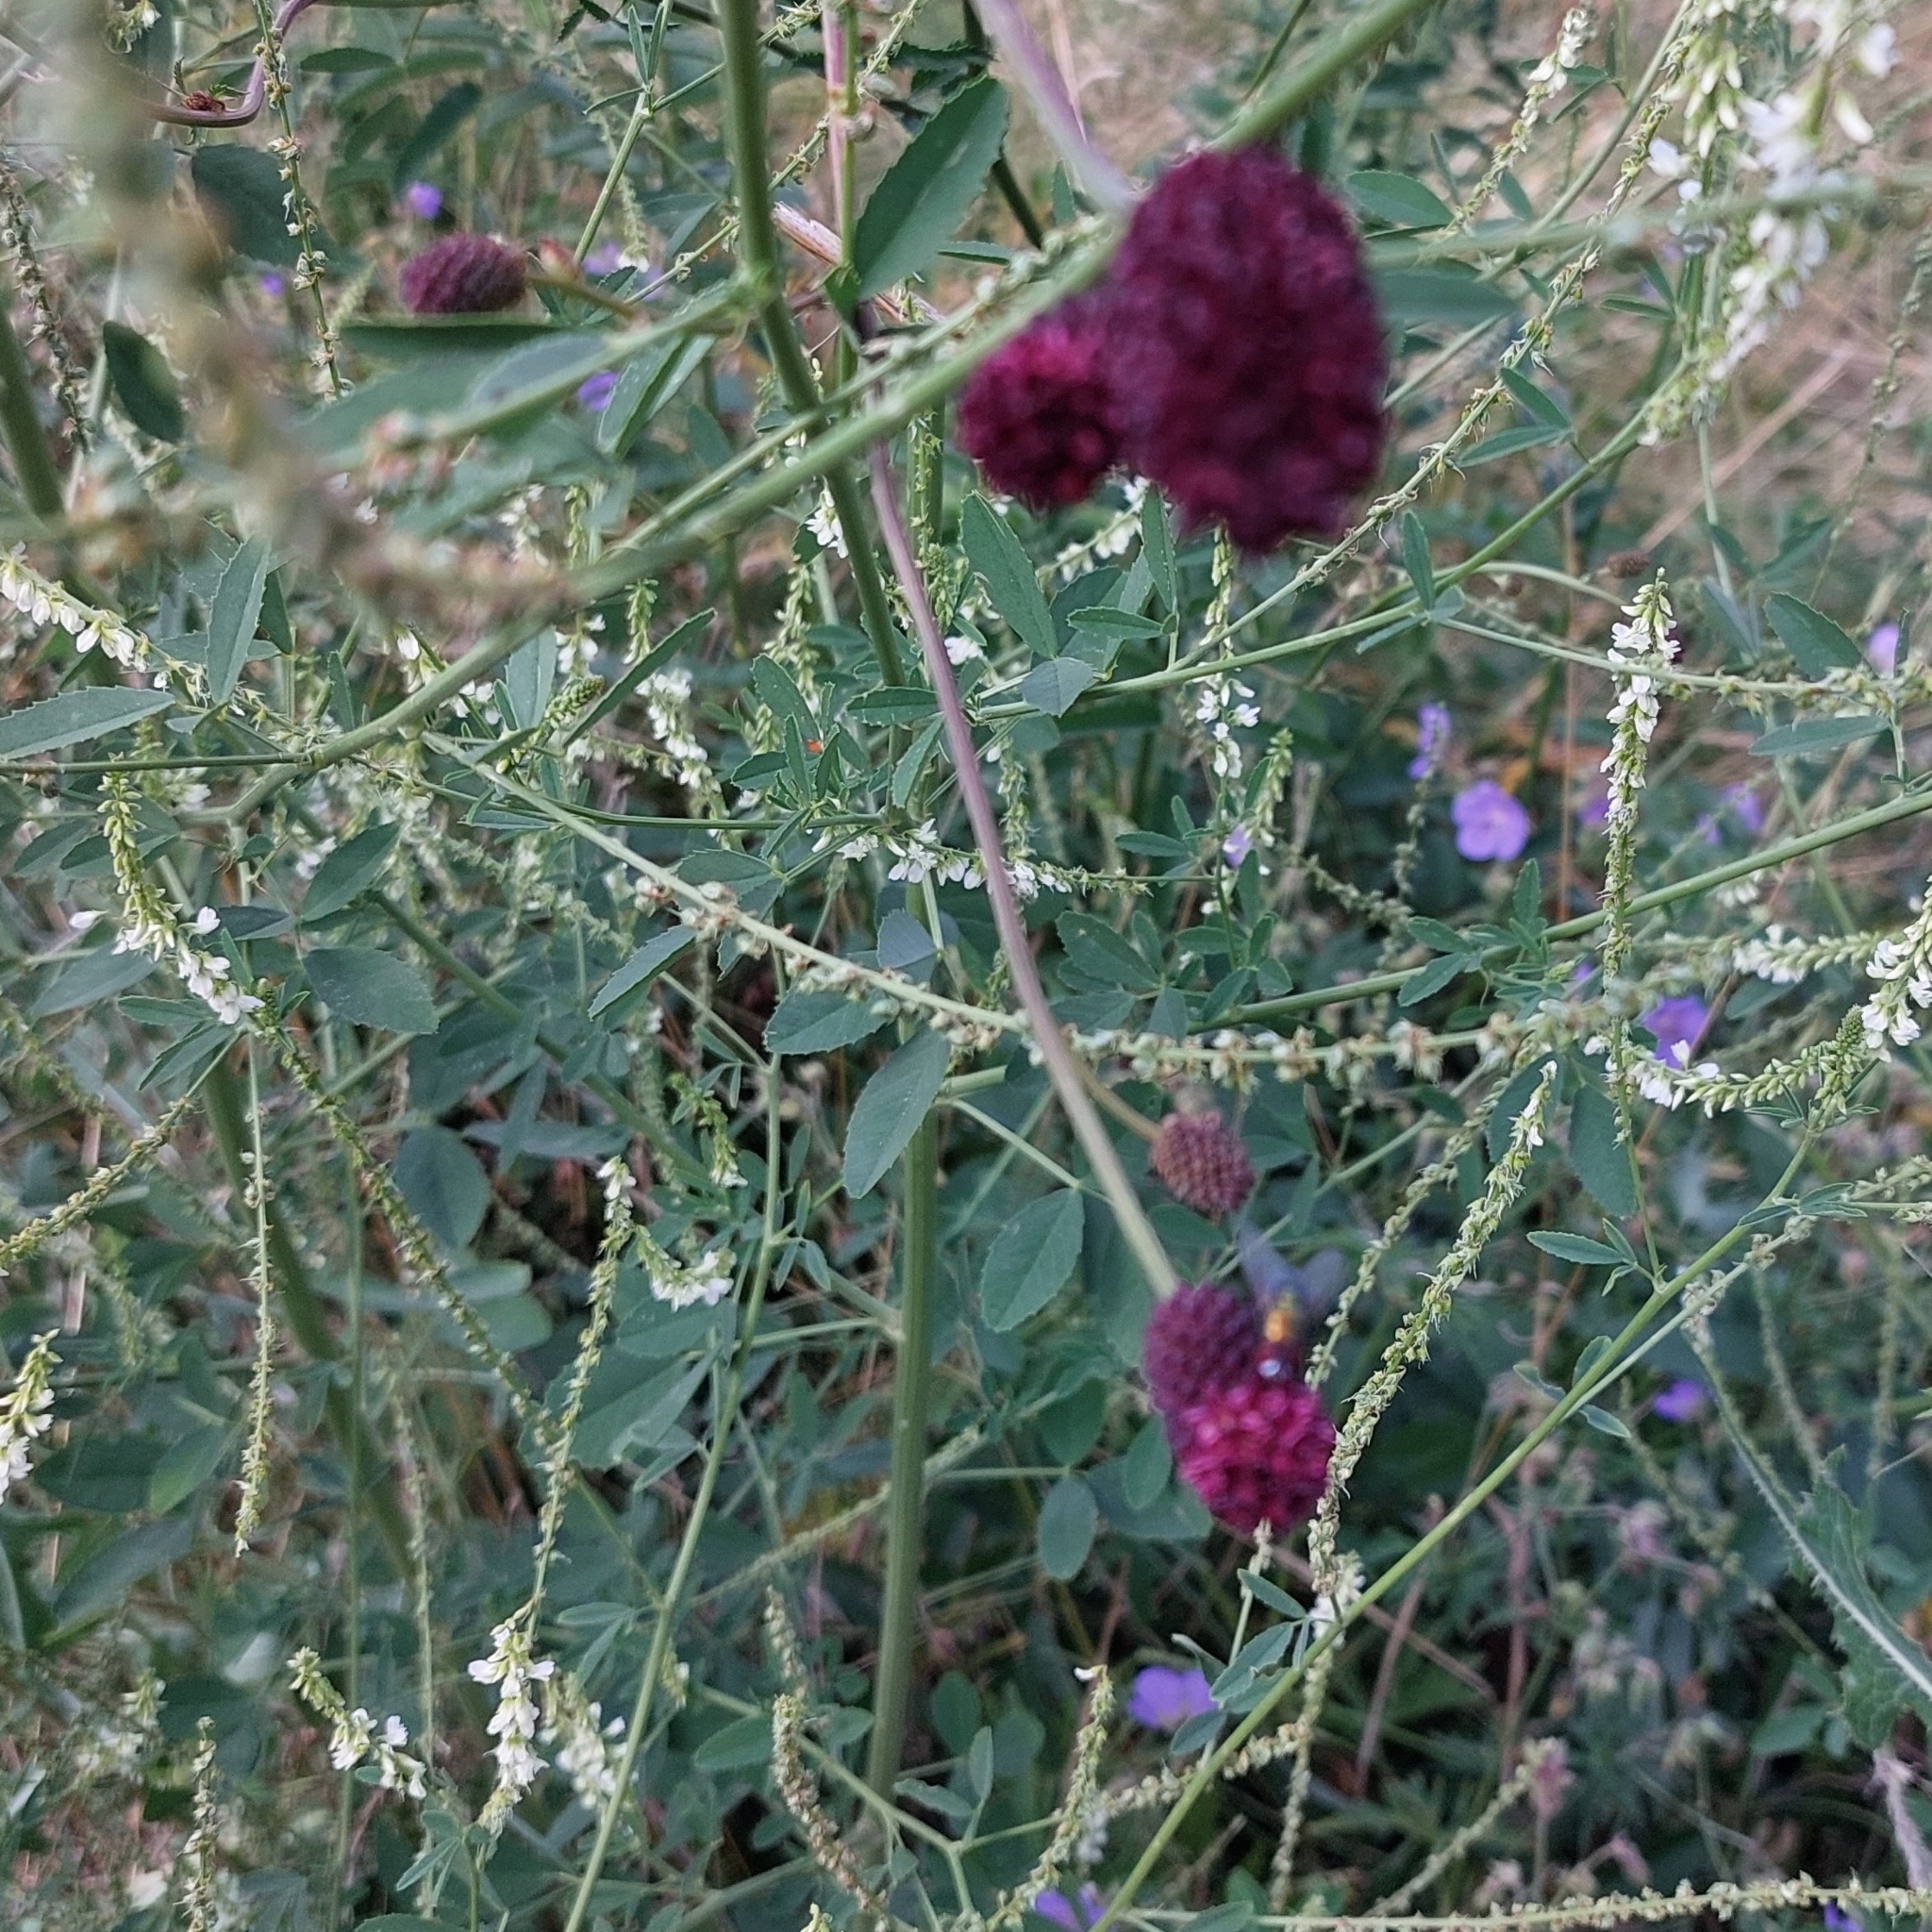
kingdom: Plantae
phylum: Tracheophyta
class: Magnoliopsida
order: Rosales
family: Rosaceae
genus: Sanguisorba
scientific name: Sanguisorba officinalis
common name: Great burnet
